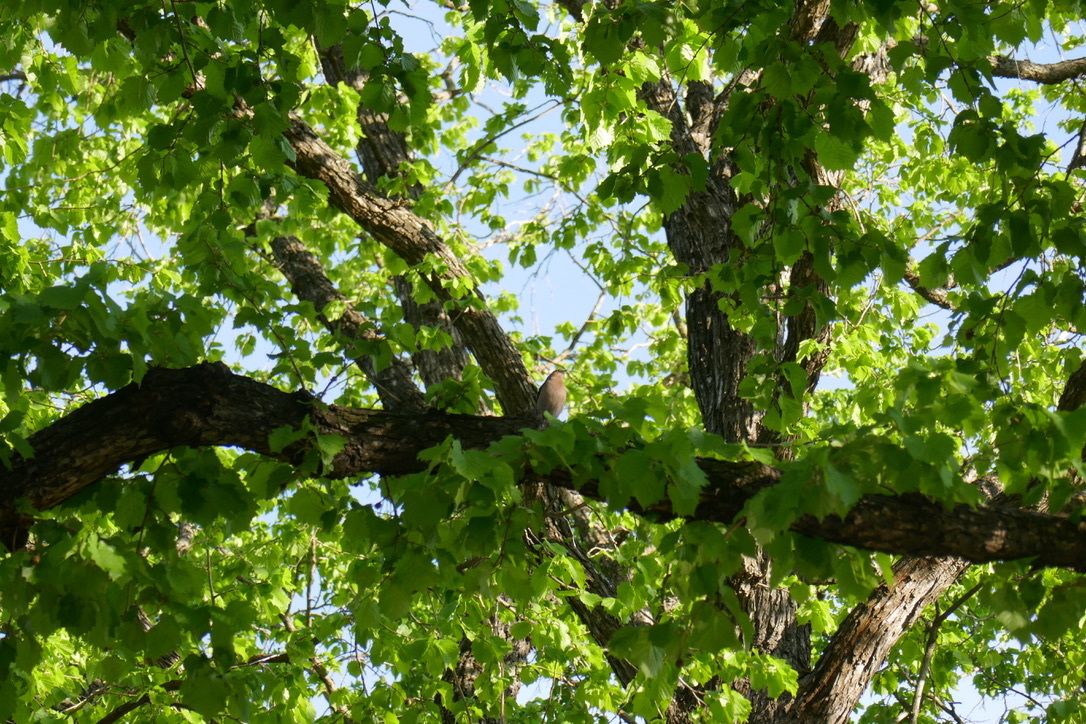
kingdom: Animalia
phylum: Chordata
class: Aves
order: Passeriformes
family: Fringillidae
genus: Fringilla
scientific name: Fringilla coelebs
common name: Common chaffinch
